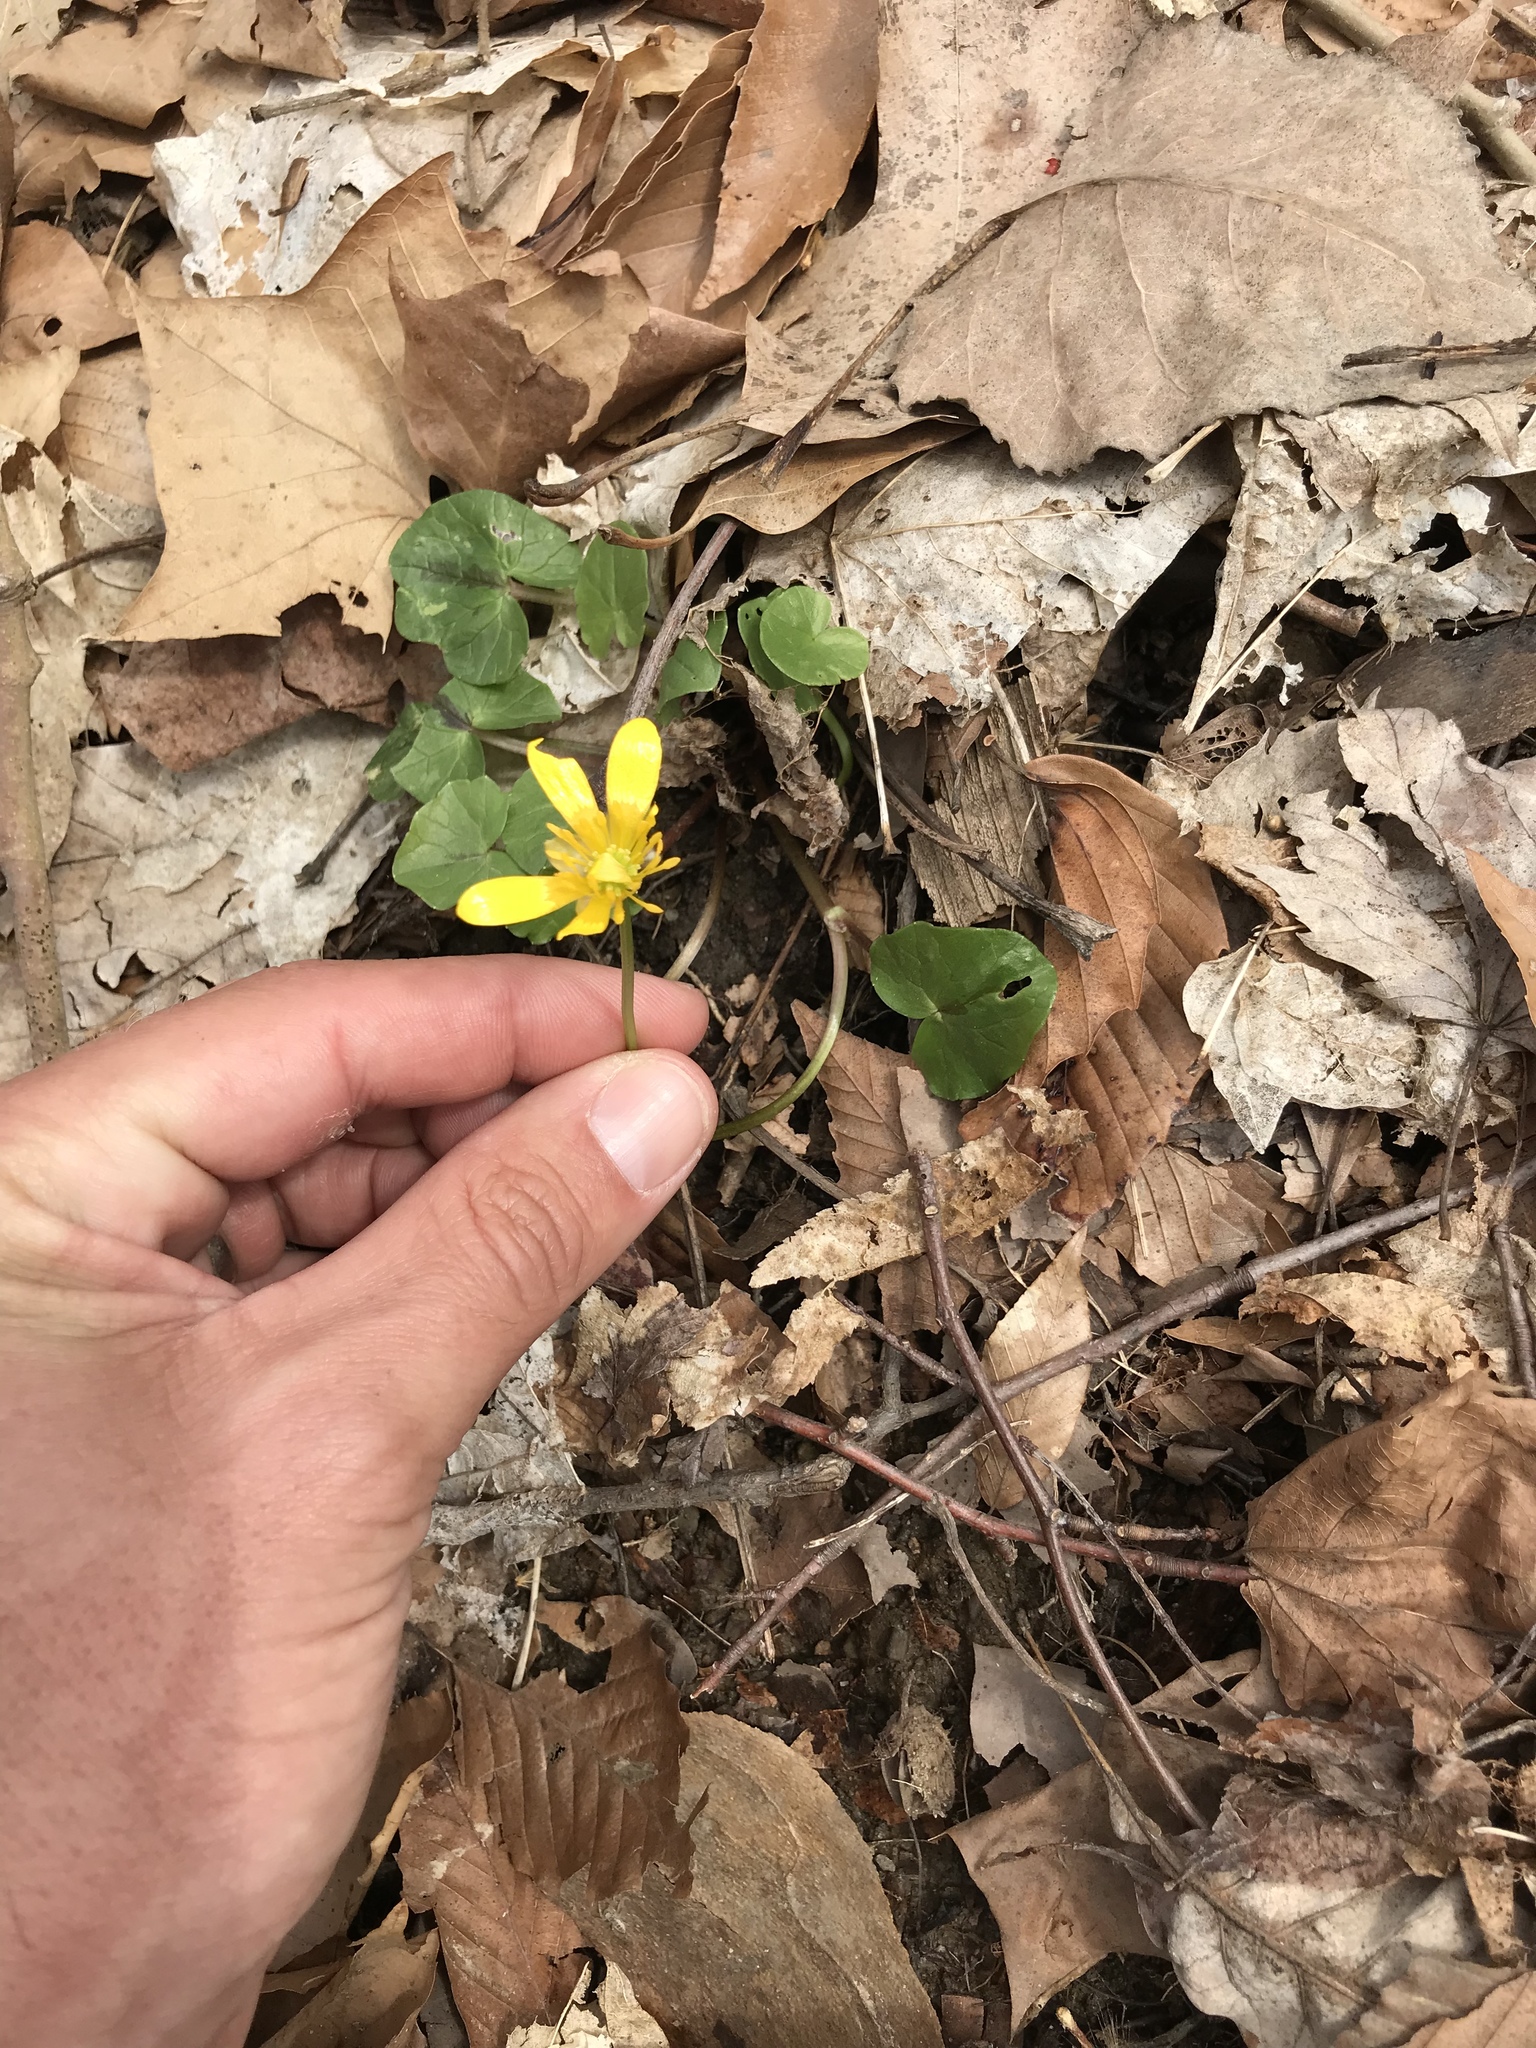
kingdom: Plantae
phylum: Tracheophyta
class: Magnoliopsida
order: Ranunculales
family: Ranunculaceae
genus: Ficaria
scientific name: Ficaria verna
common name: Lesser celandine
